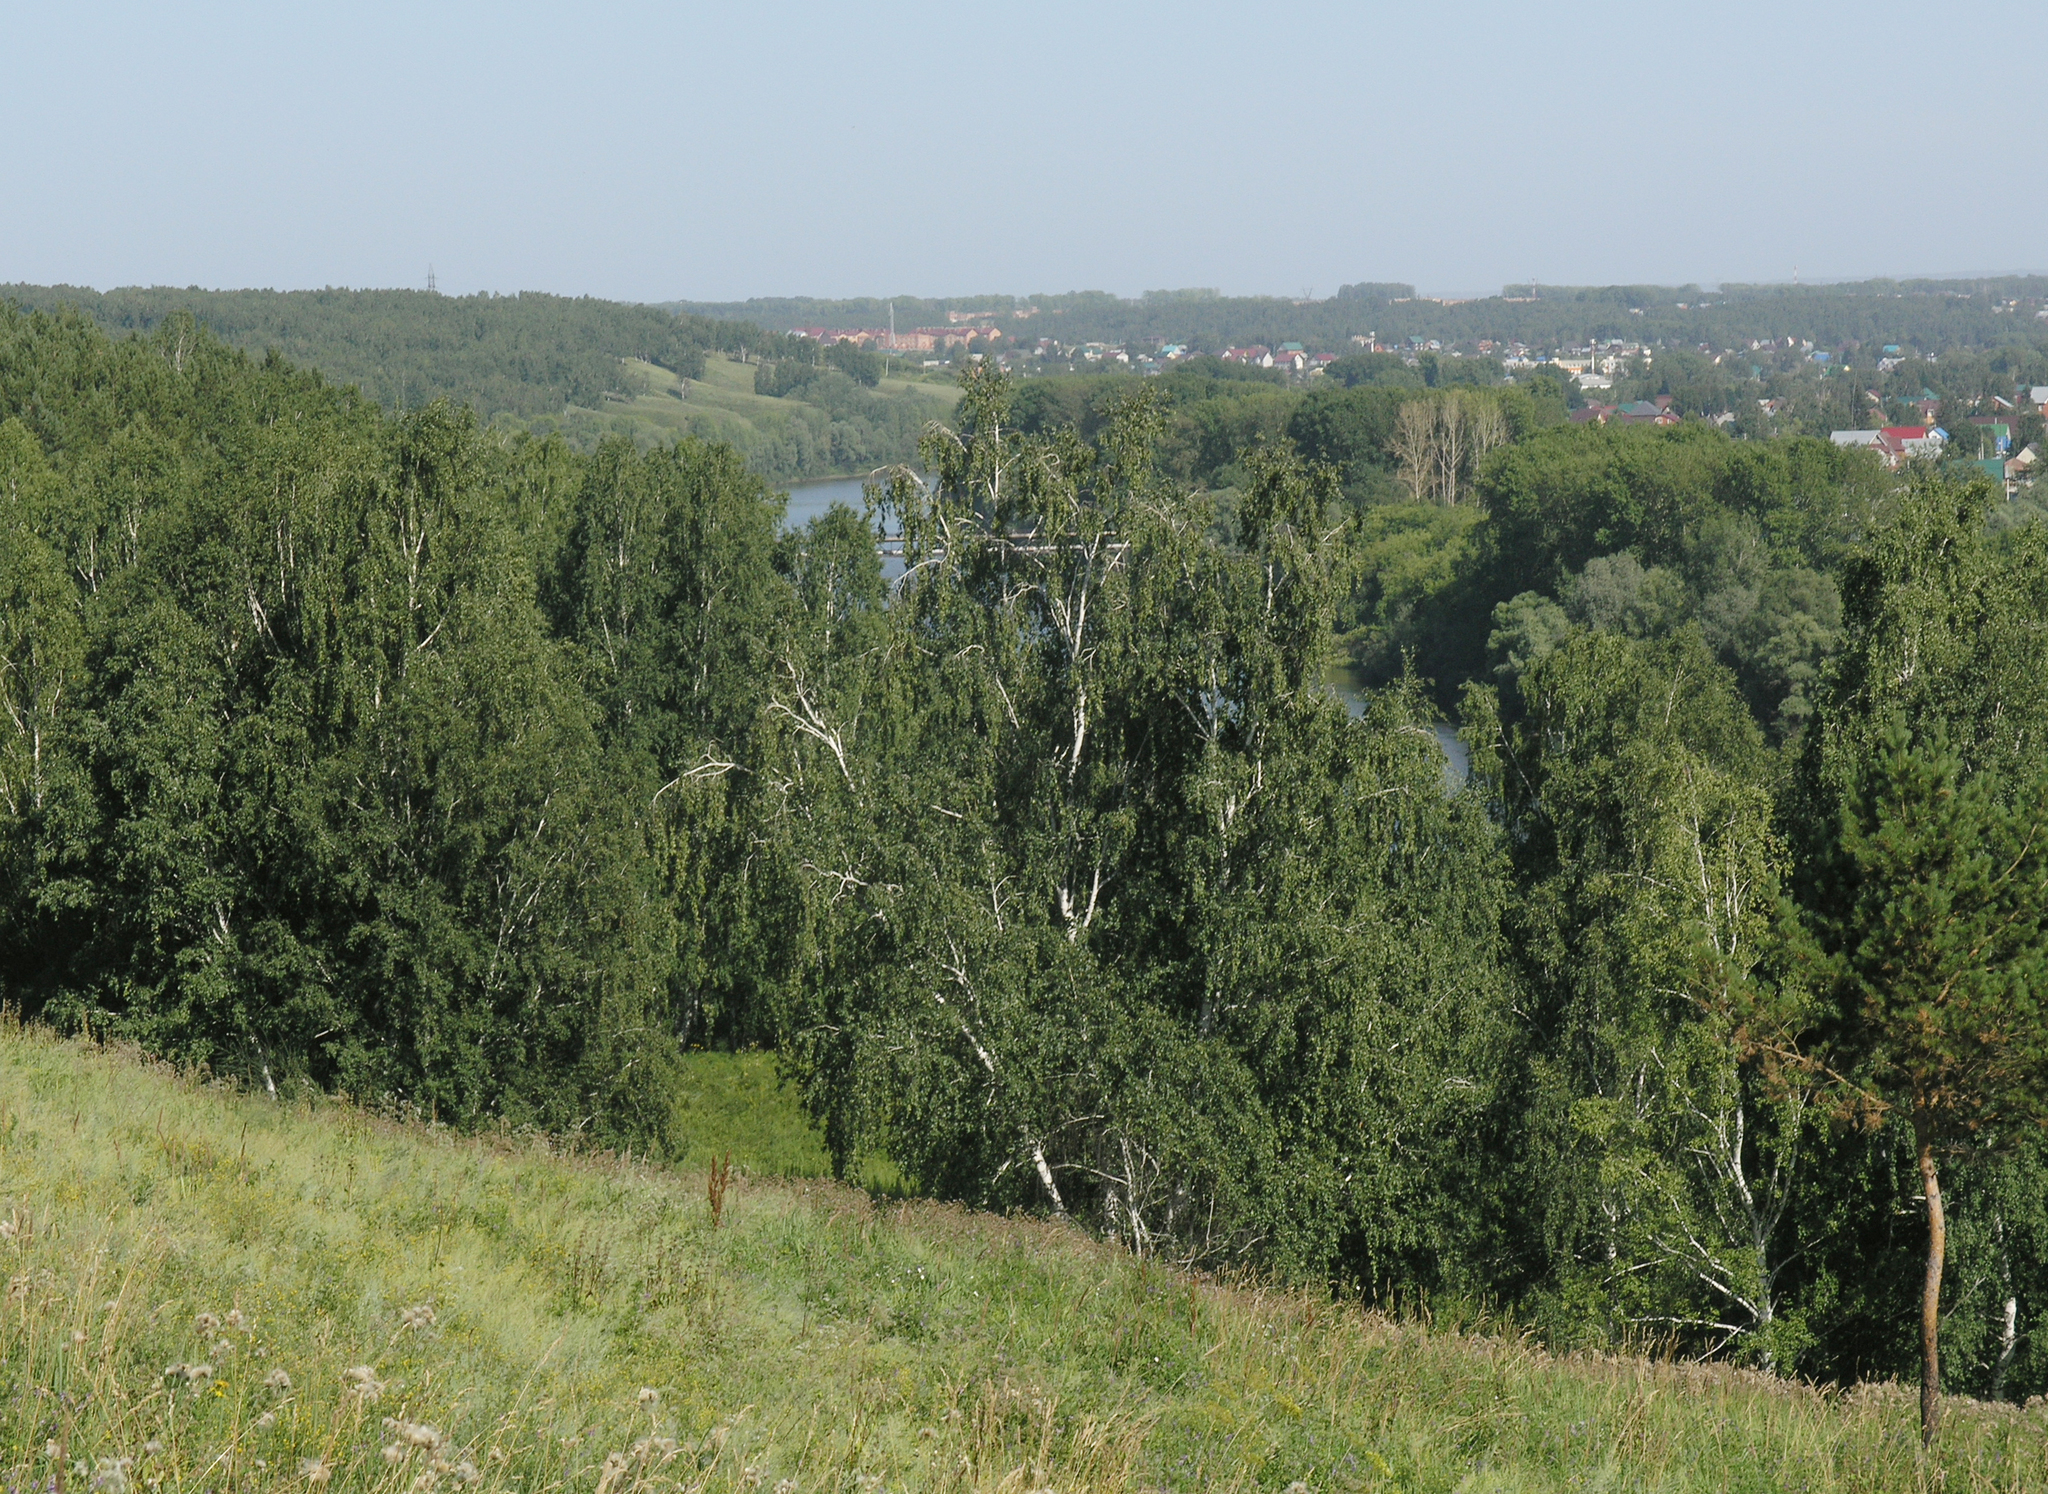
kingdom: Plantae
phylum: Tracheophyta
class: Magnoliopsida
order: Fagales
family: Betulaceae
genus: Betula
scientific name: Betula pendula
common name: Silver birch
